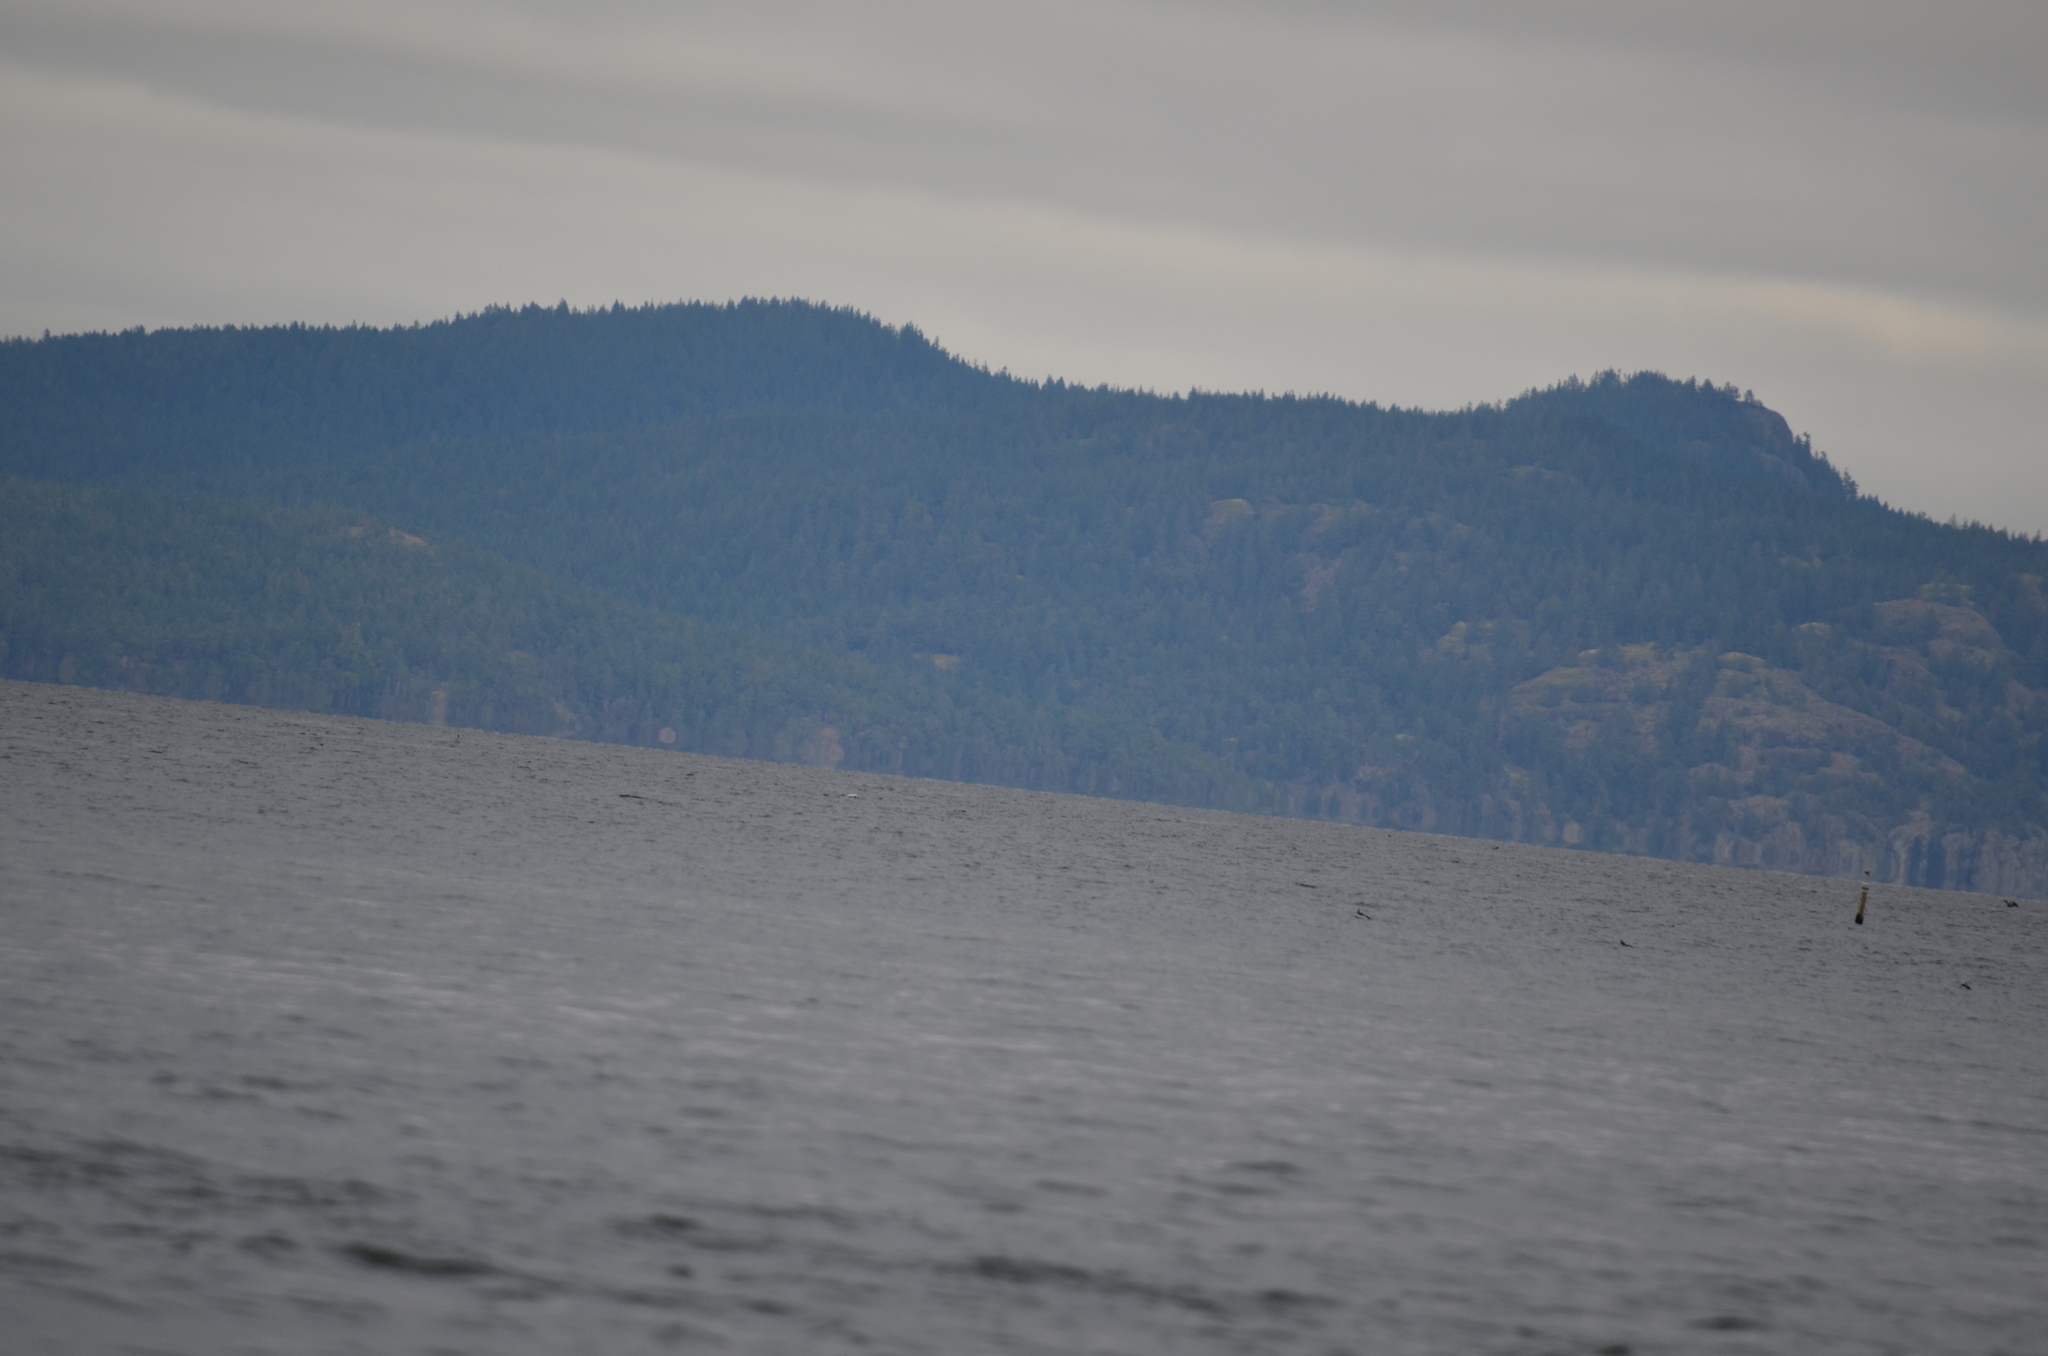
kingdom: Animalia
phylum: Chordata
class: Aves
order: Anseriformes
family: Anatidae
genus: Bucephala
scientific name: Bucephala albeola
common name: Bufflehead
